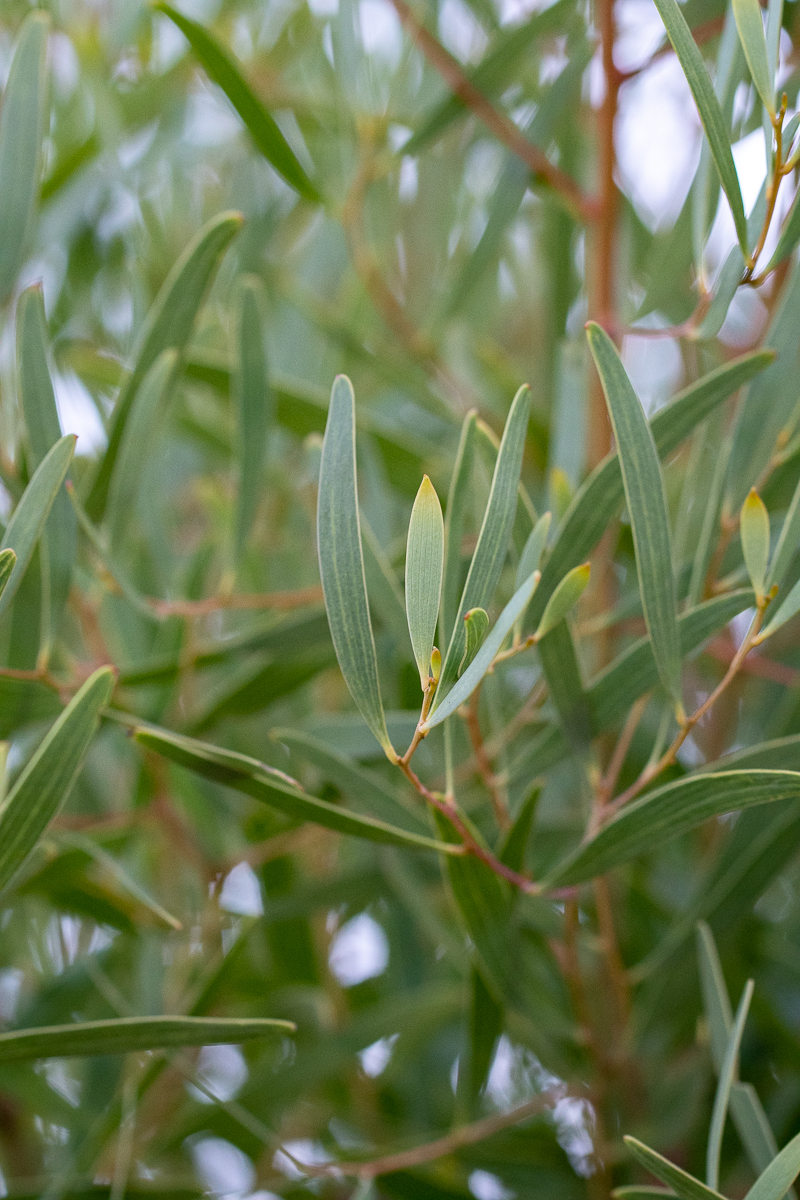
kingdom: Plantae
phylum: Tracheophyta
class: Magnoliopsida
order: Fabales
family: Fabaceae
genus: Acacia
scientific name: Acacia cyclops
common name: Coastal wattle
